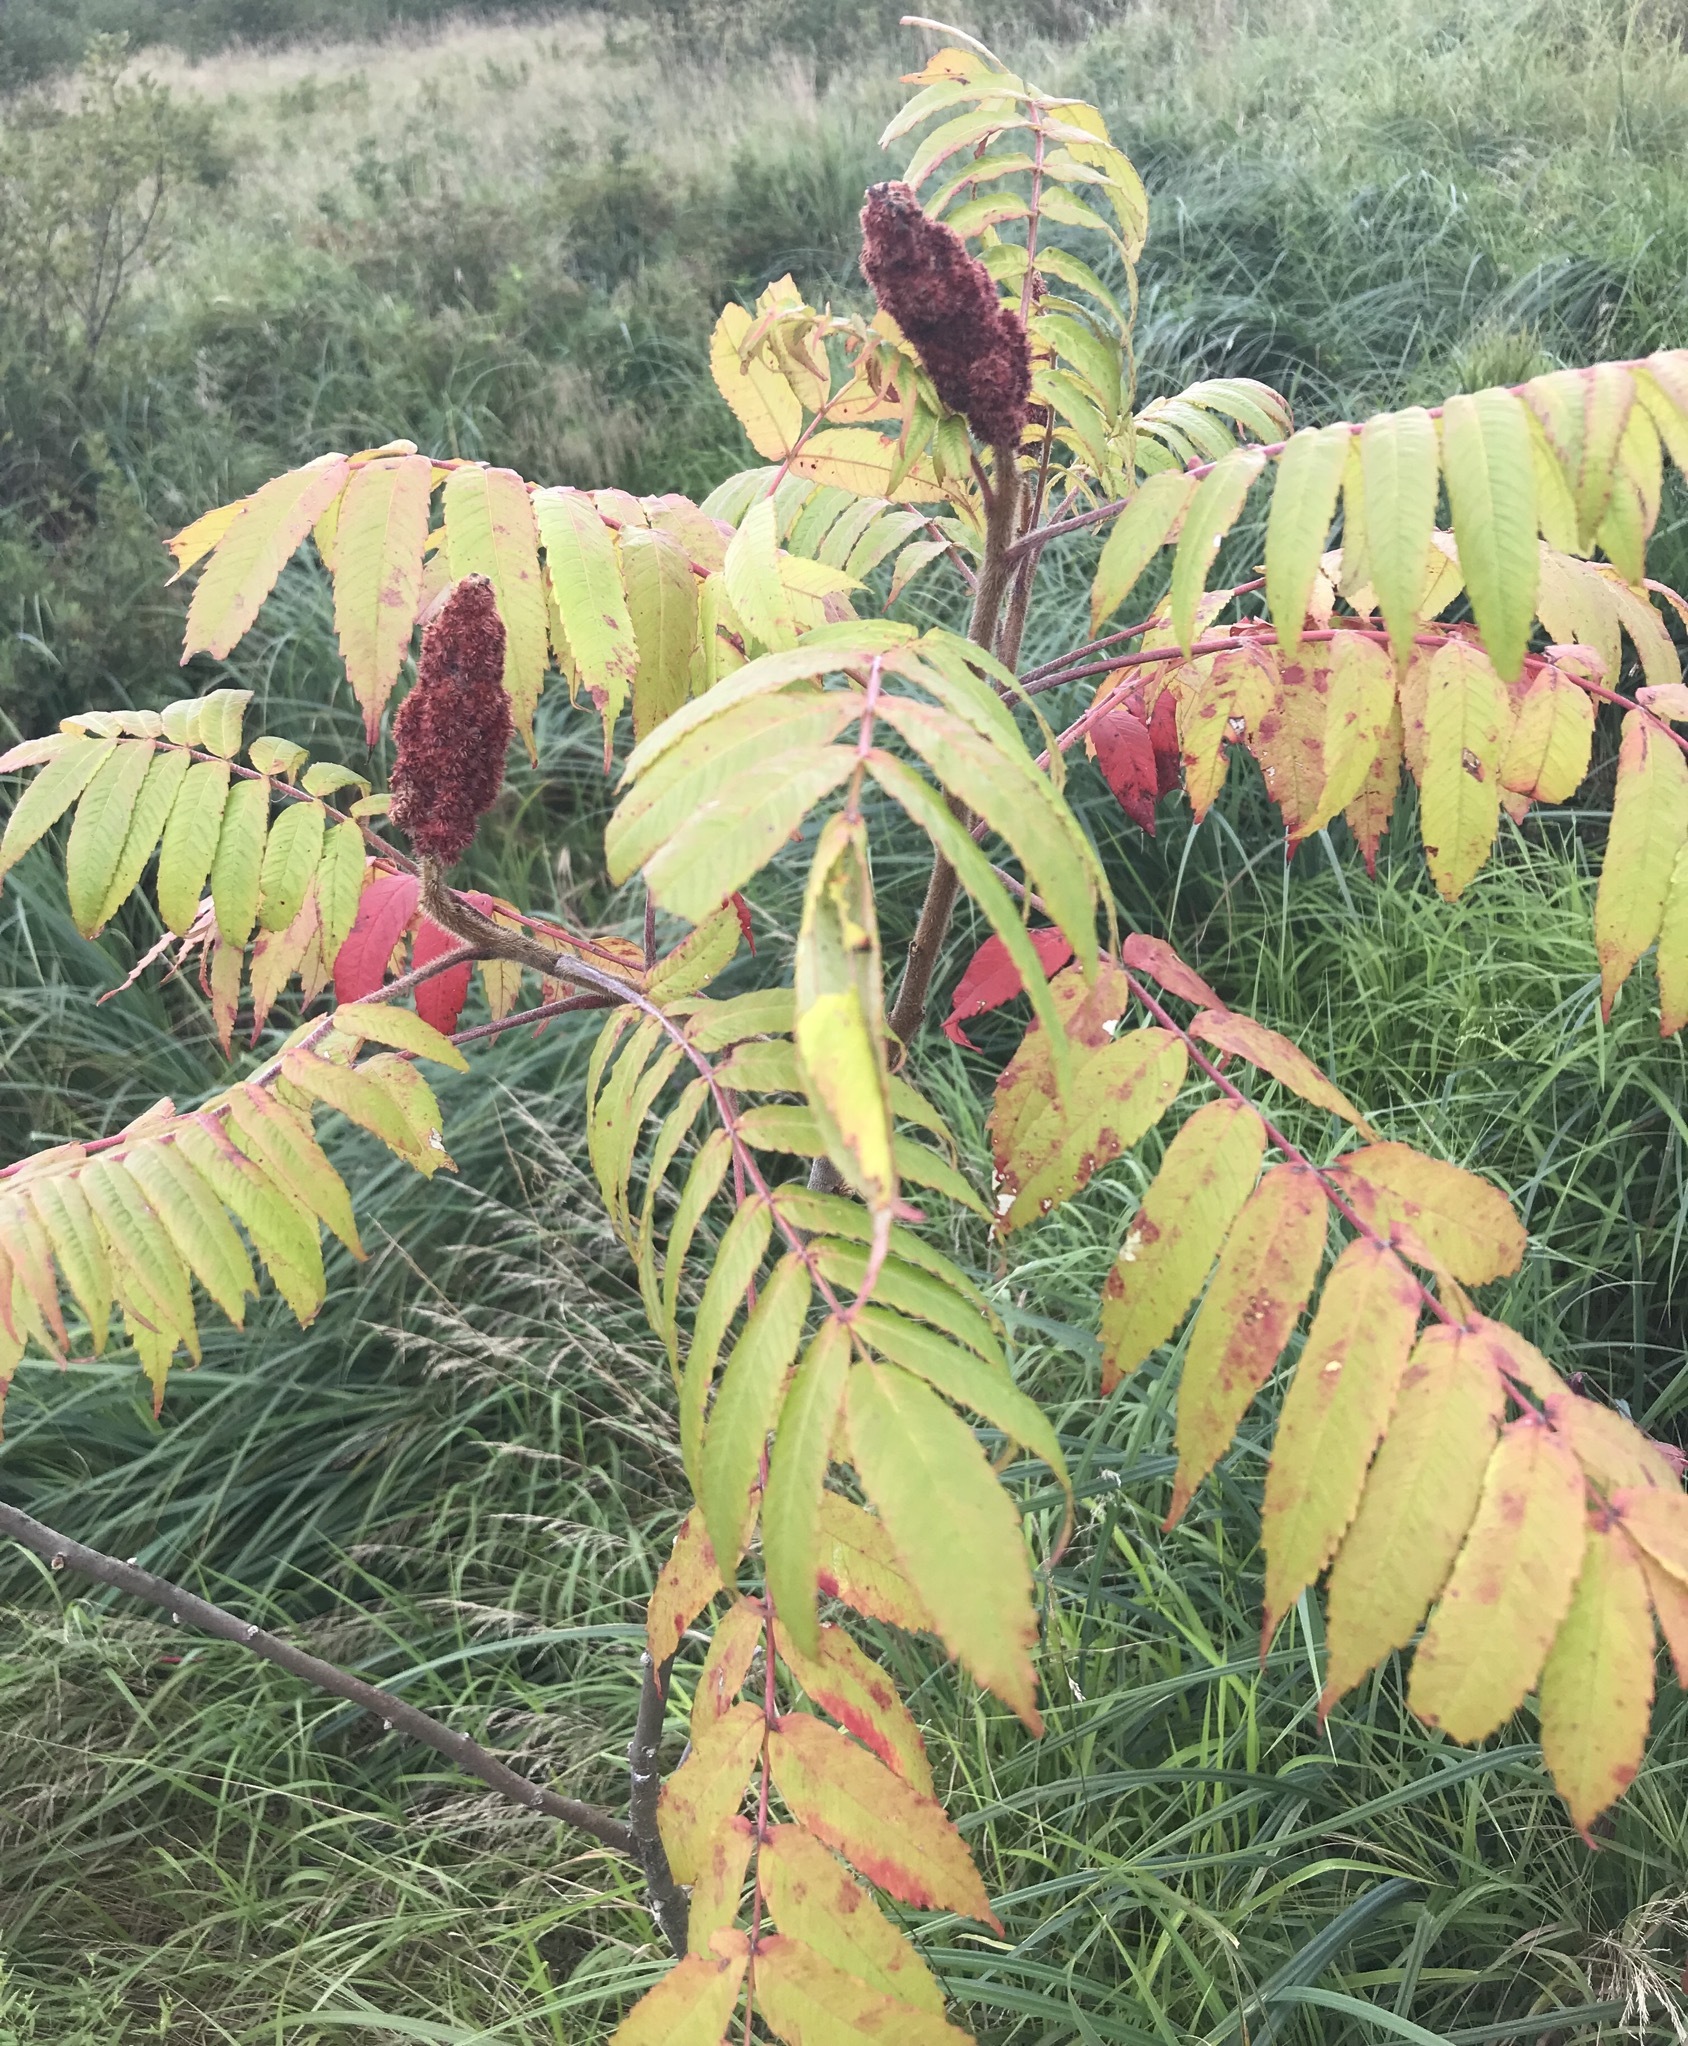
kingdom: Plantae
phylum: Tracheophyta
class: Magnoliopsida
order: Sapindales
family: Anacardiaceae
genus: Rhus
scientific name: Rhus typhina
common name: Staghorn sumac
